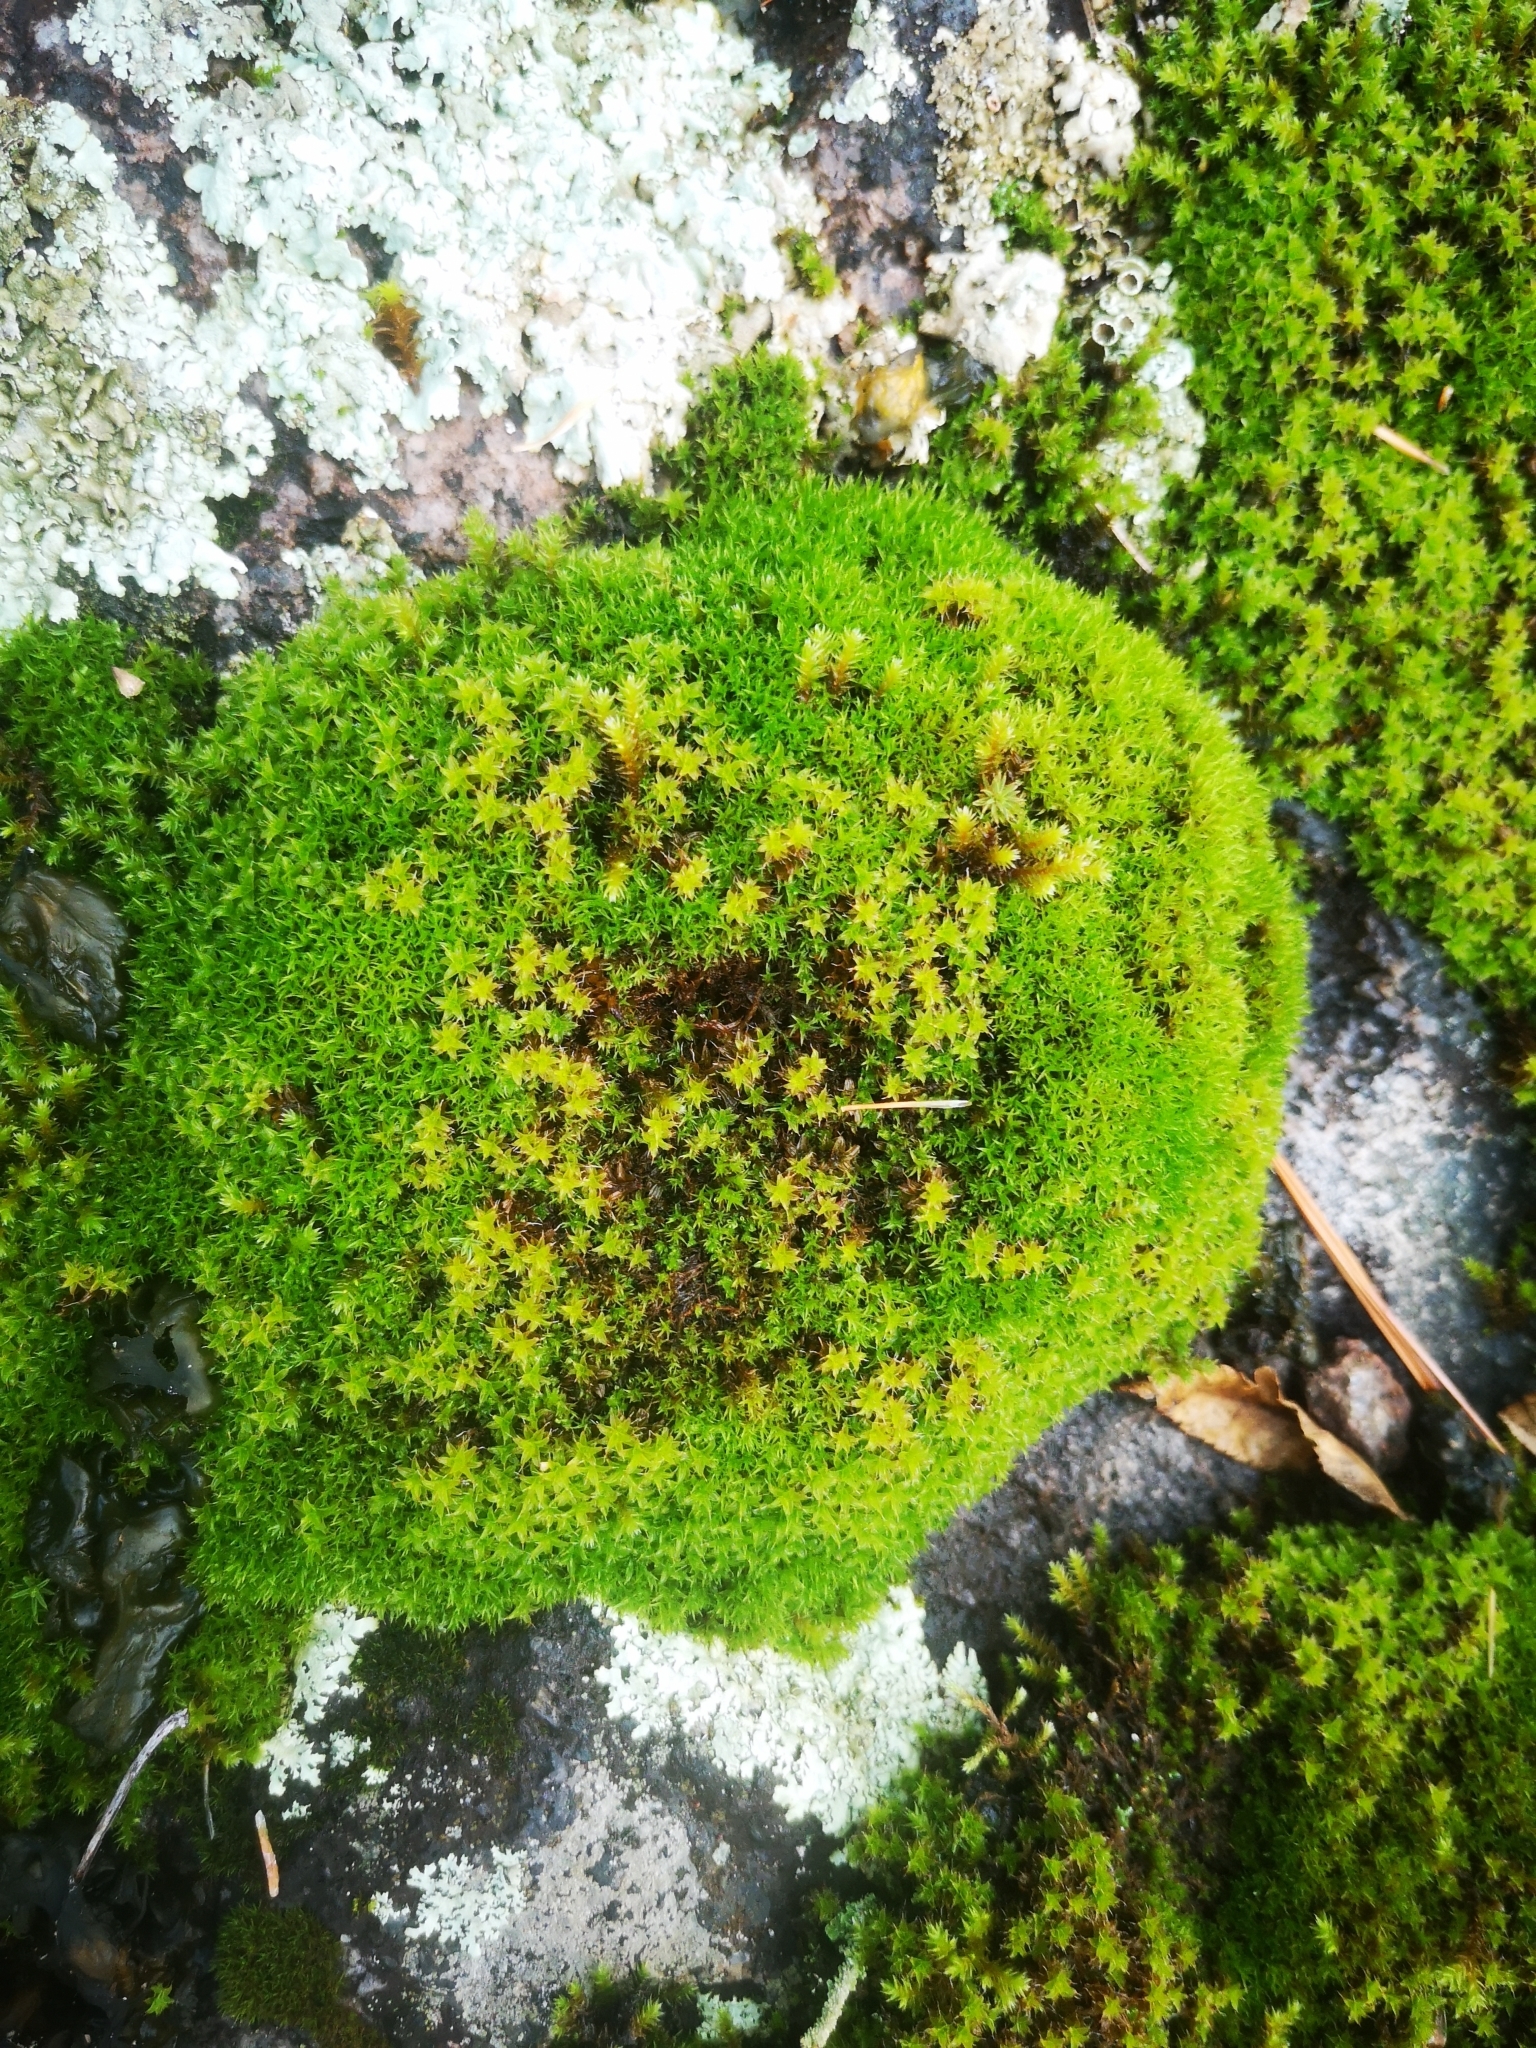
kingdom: Plantae
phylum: Bryophyta
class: Bryopsida
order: Pottiales
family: Pottiaceae
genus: Syntrichia
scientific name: Syntrichia ruralis
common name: Sidewalk screw moss
